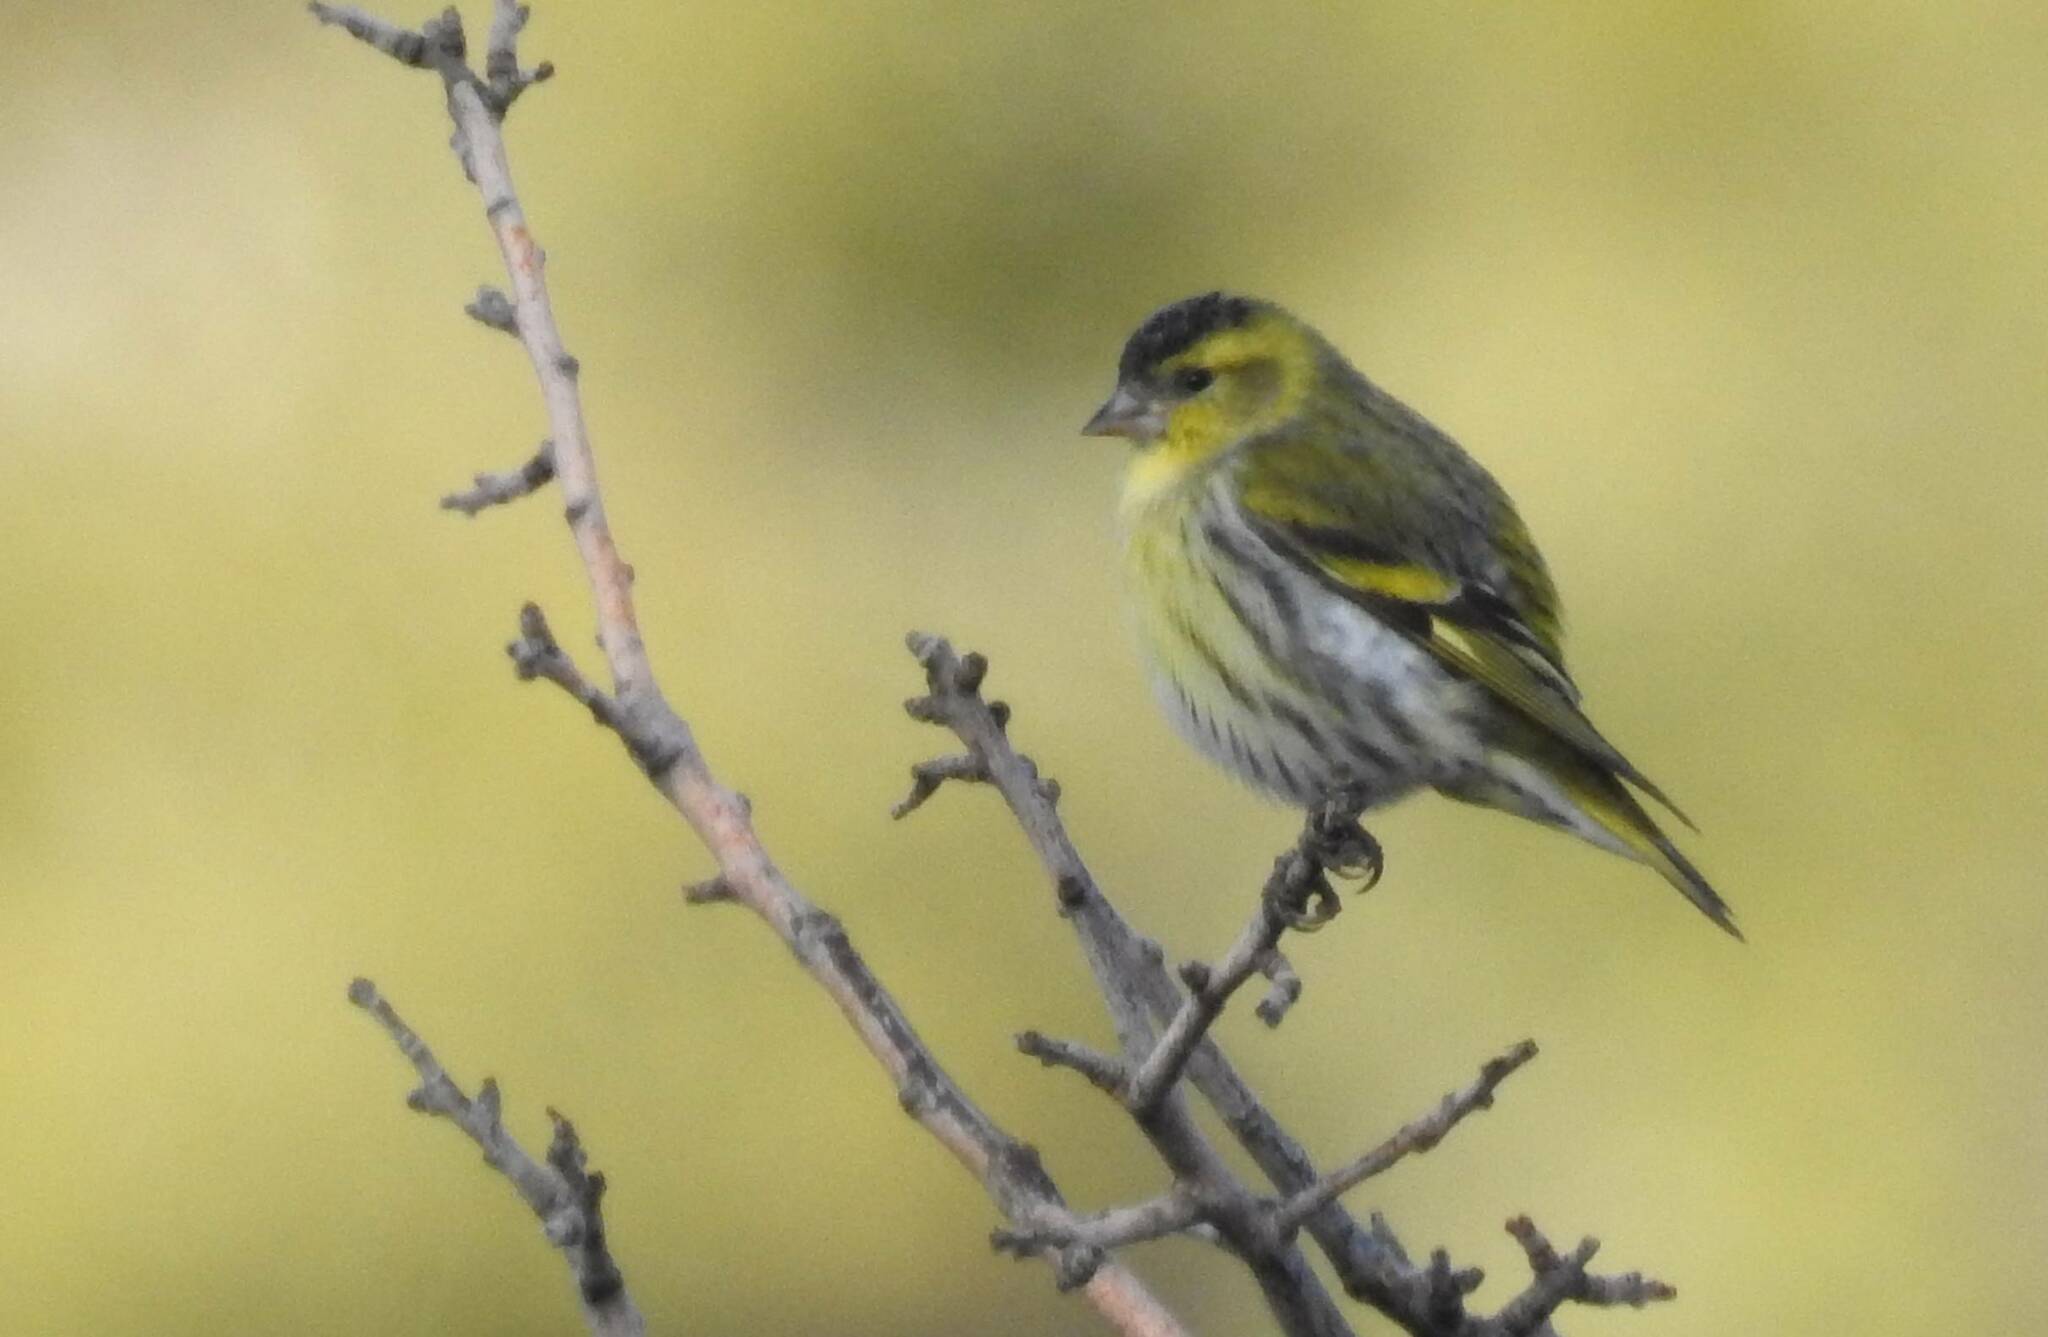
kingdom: Animalia
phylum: Chordata
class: Aves
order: Passeriformes
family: Fringillidae
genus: Spinus
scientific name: Spinus spinus
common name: Eurasian siskin
